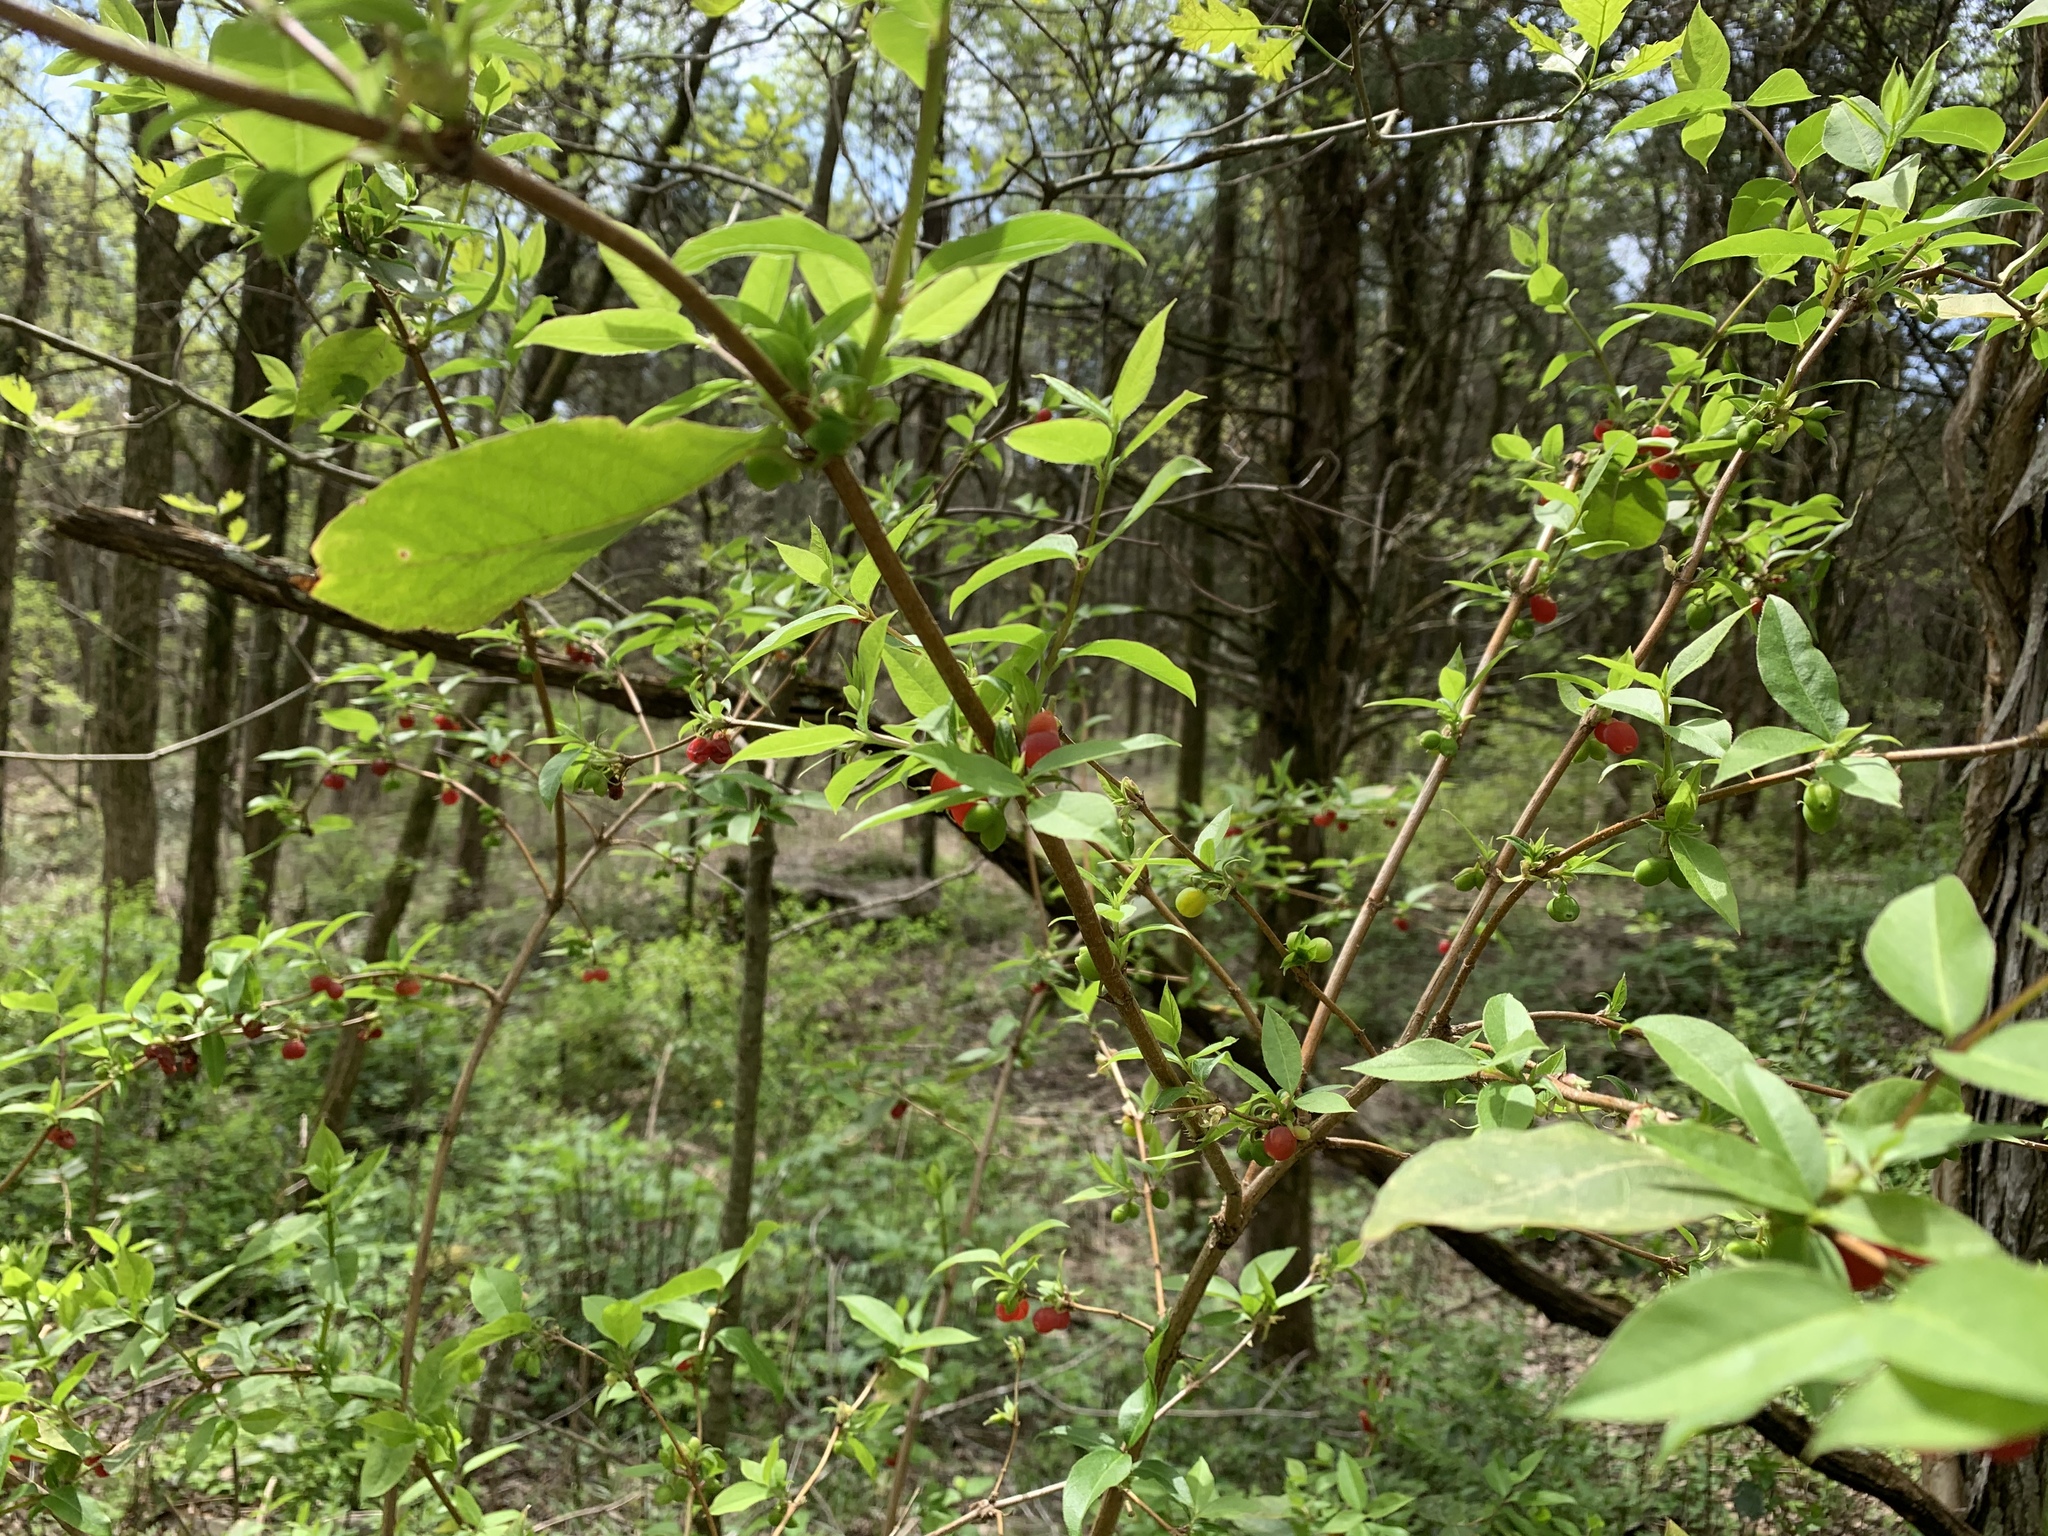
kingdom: Plantae
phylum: Tracheophyta
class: Magnoliopsida
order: Dipsacales
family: Caprifoliaceae
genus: Lonicera
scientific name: Lonicera fragrantissima
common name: Fragrant honeysuckle
